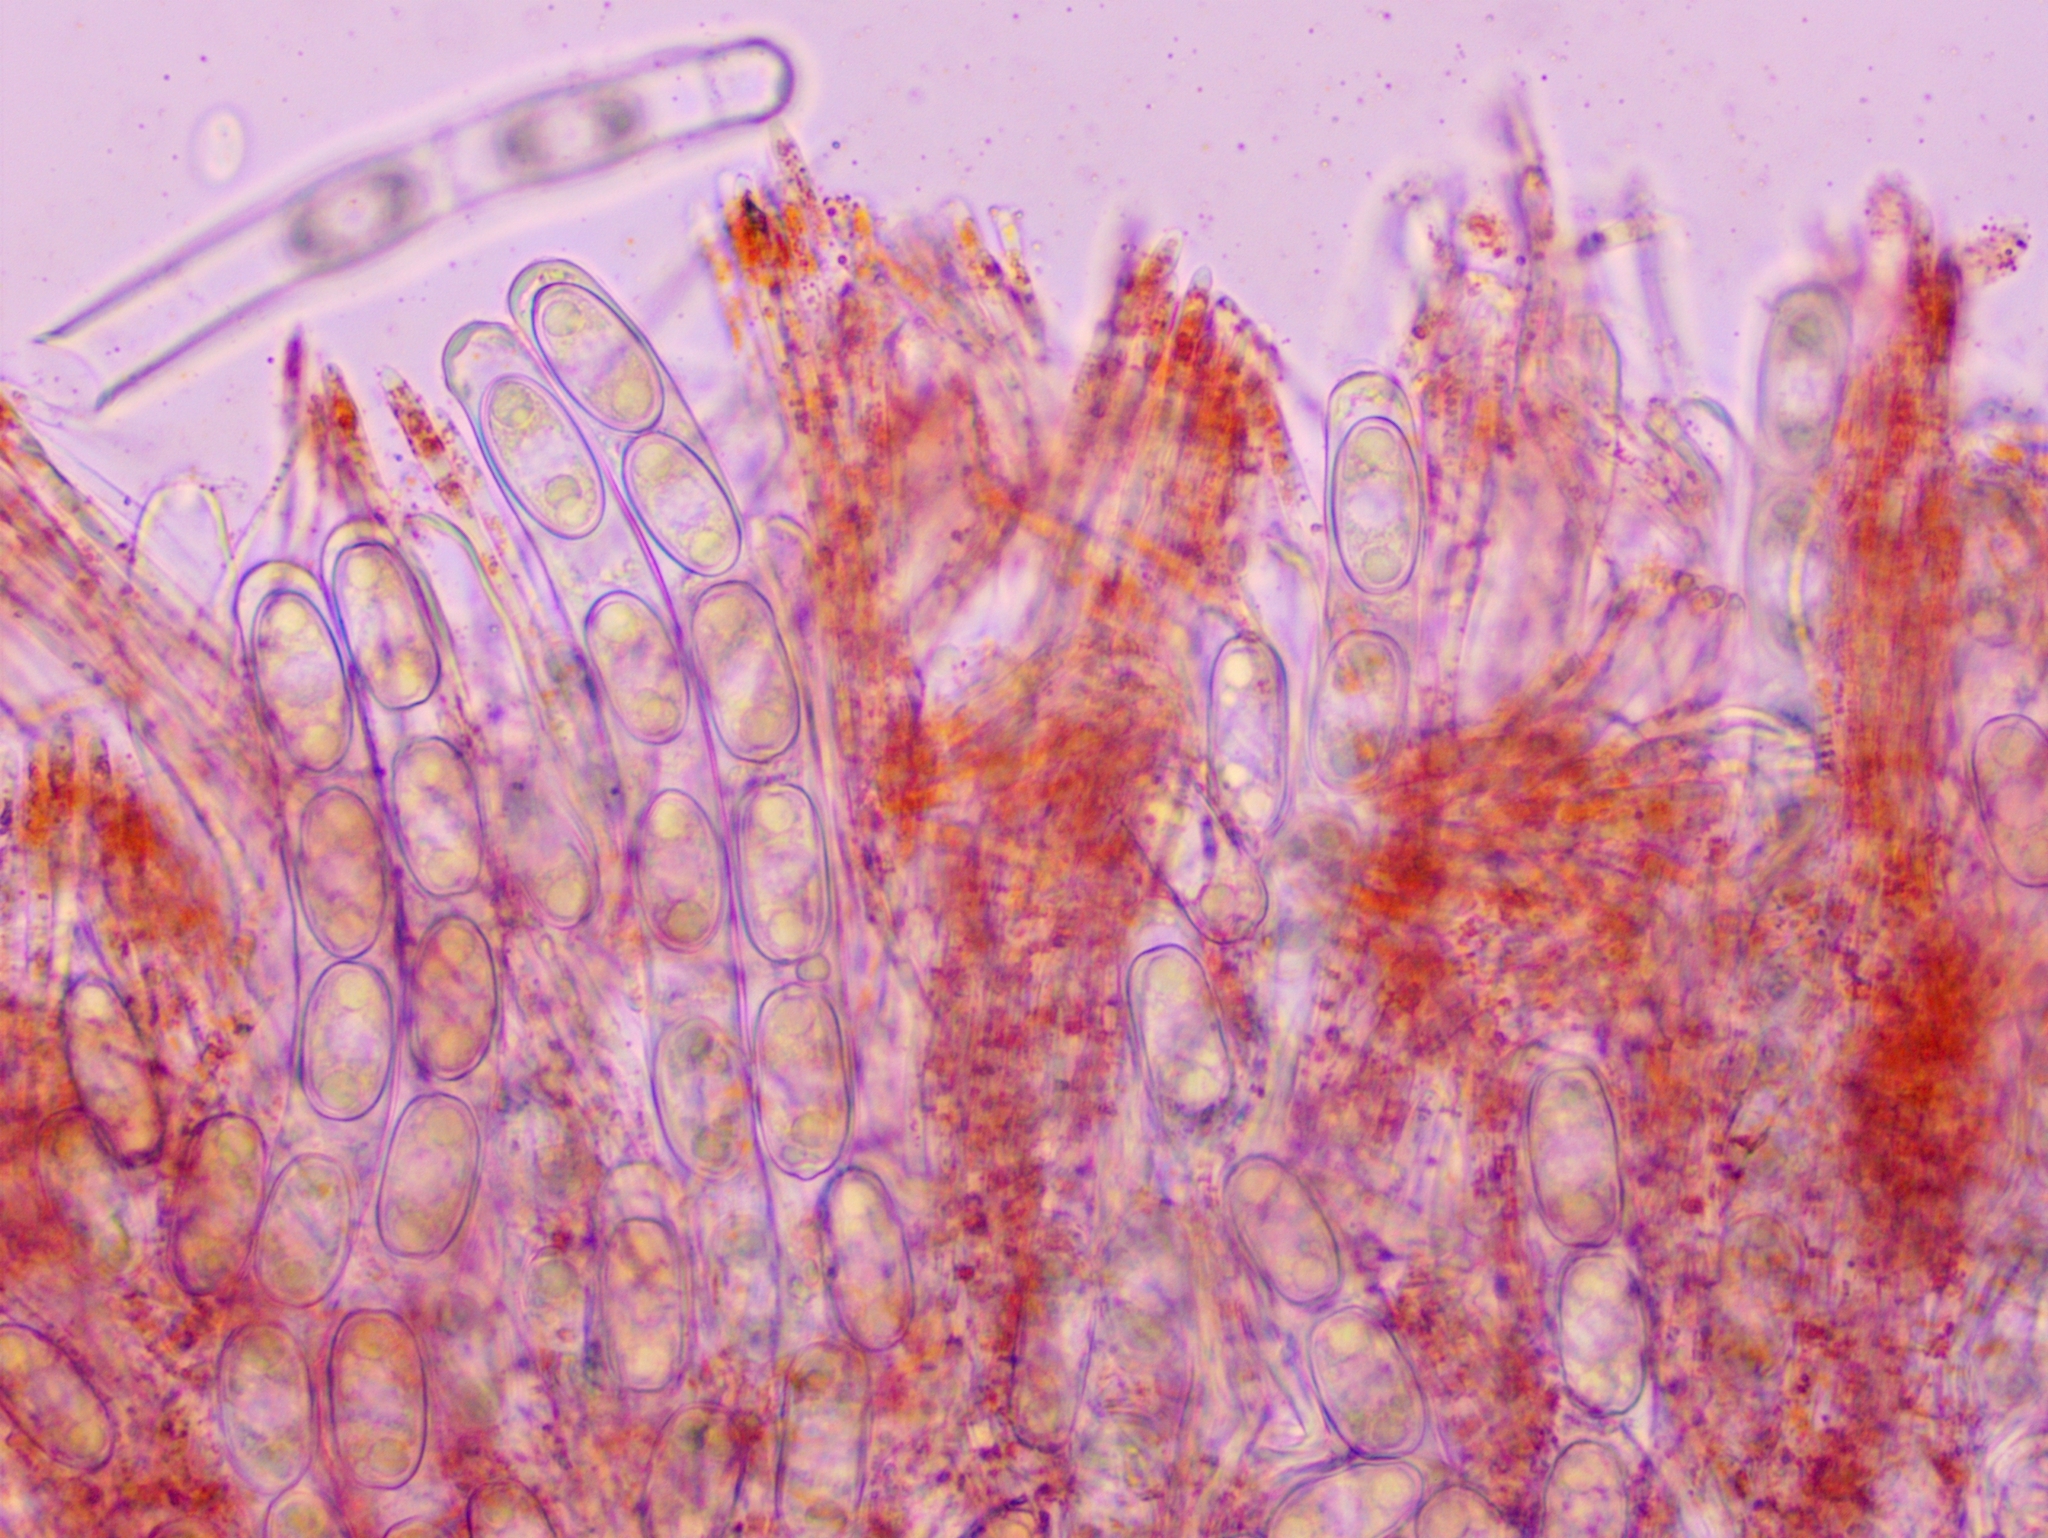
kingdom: Fungi
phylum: Ascomycota
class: Pezizomycetes
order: Pezizales
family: Sarcoscyphaceae
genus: Sarcoscypha
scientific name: Sarcoscypha jurana
